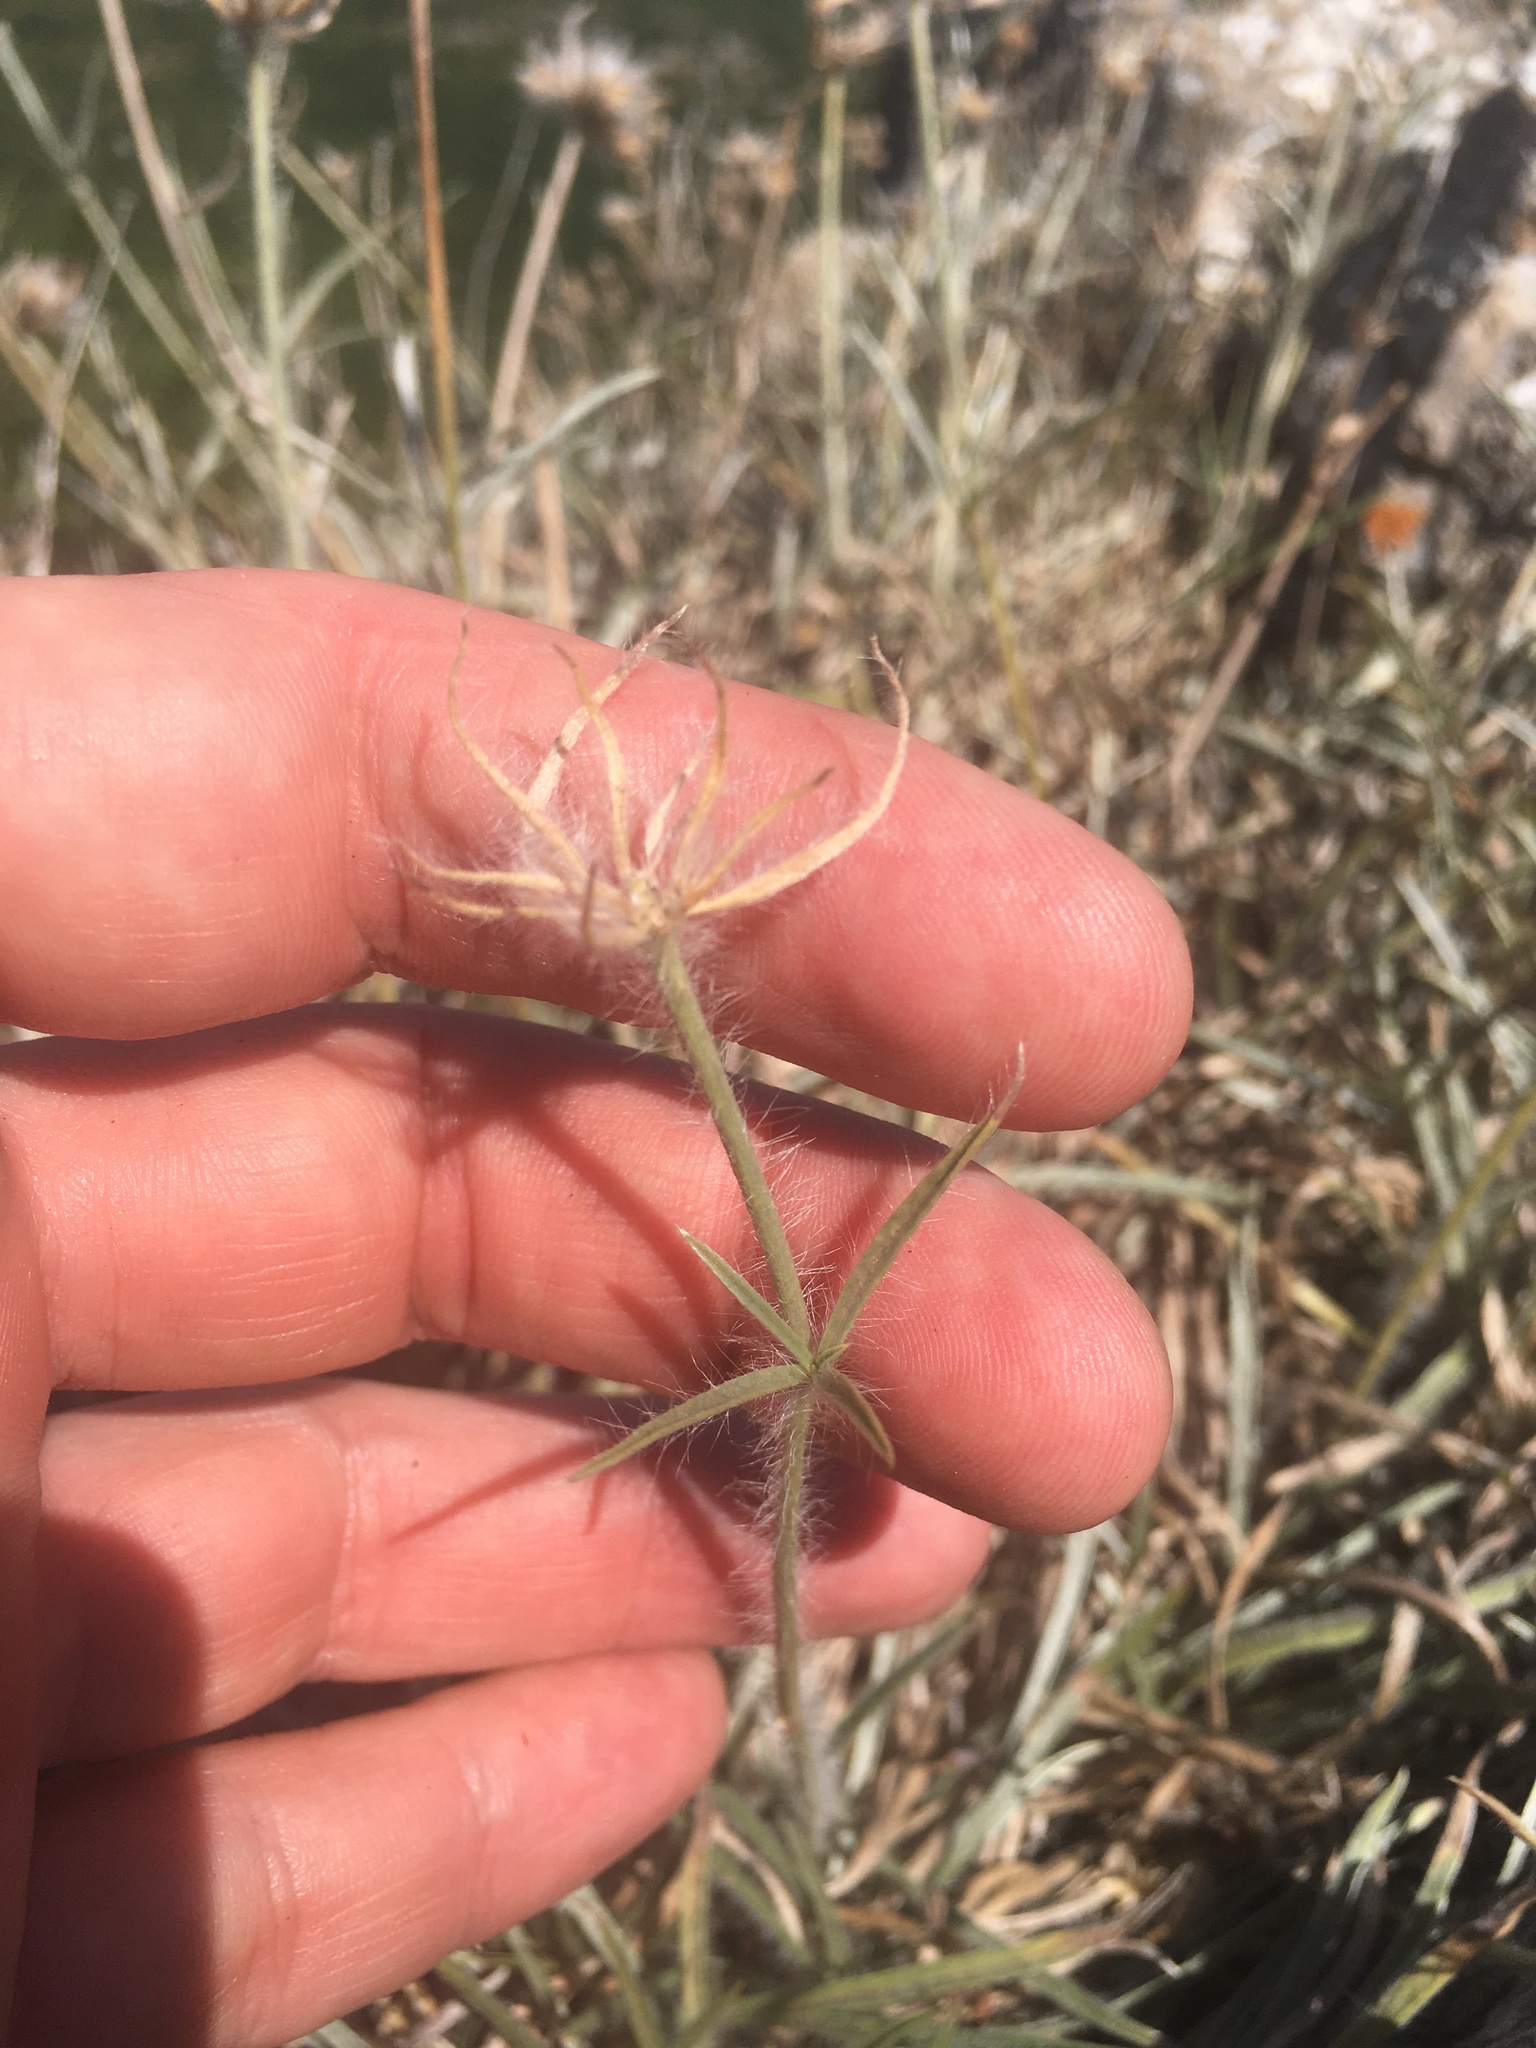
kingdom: Plantae
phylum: Tracheophyta
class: Magnoliopsida
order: Solanales
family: Convolvulaceae
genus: Convolvulus
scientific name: Convolvulus calvertii
